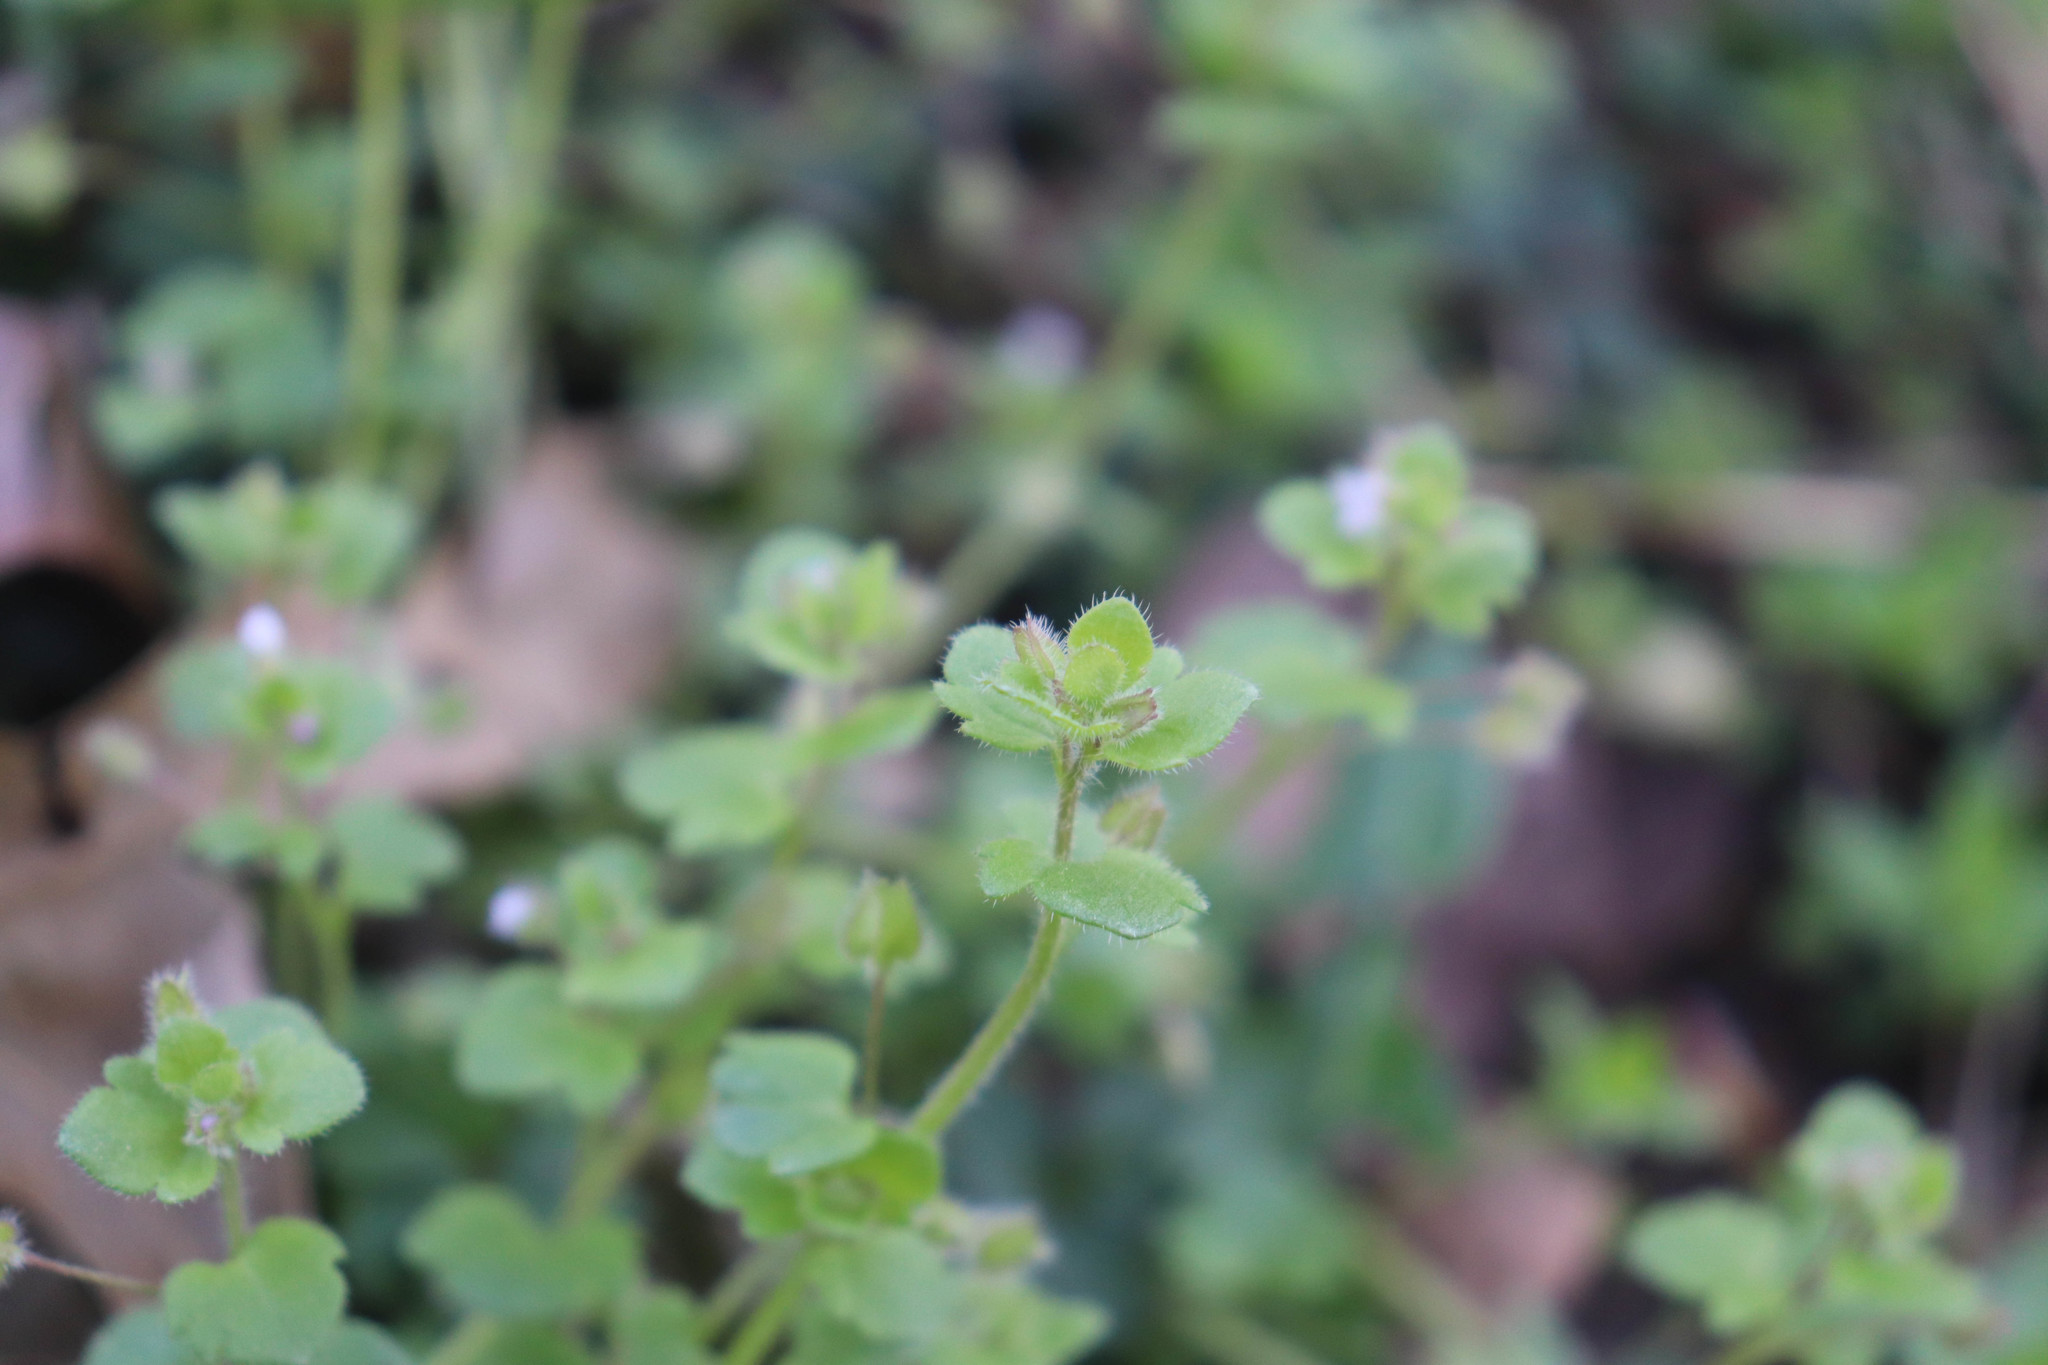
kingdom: Plantae
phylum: Tracheophyta
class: Magnoliopsida
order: Lamiales
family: Plantaginaceae
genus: Veronica
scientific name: Veronica sublobata
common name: False ivy-leaved speedwell
